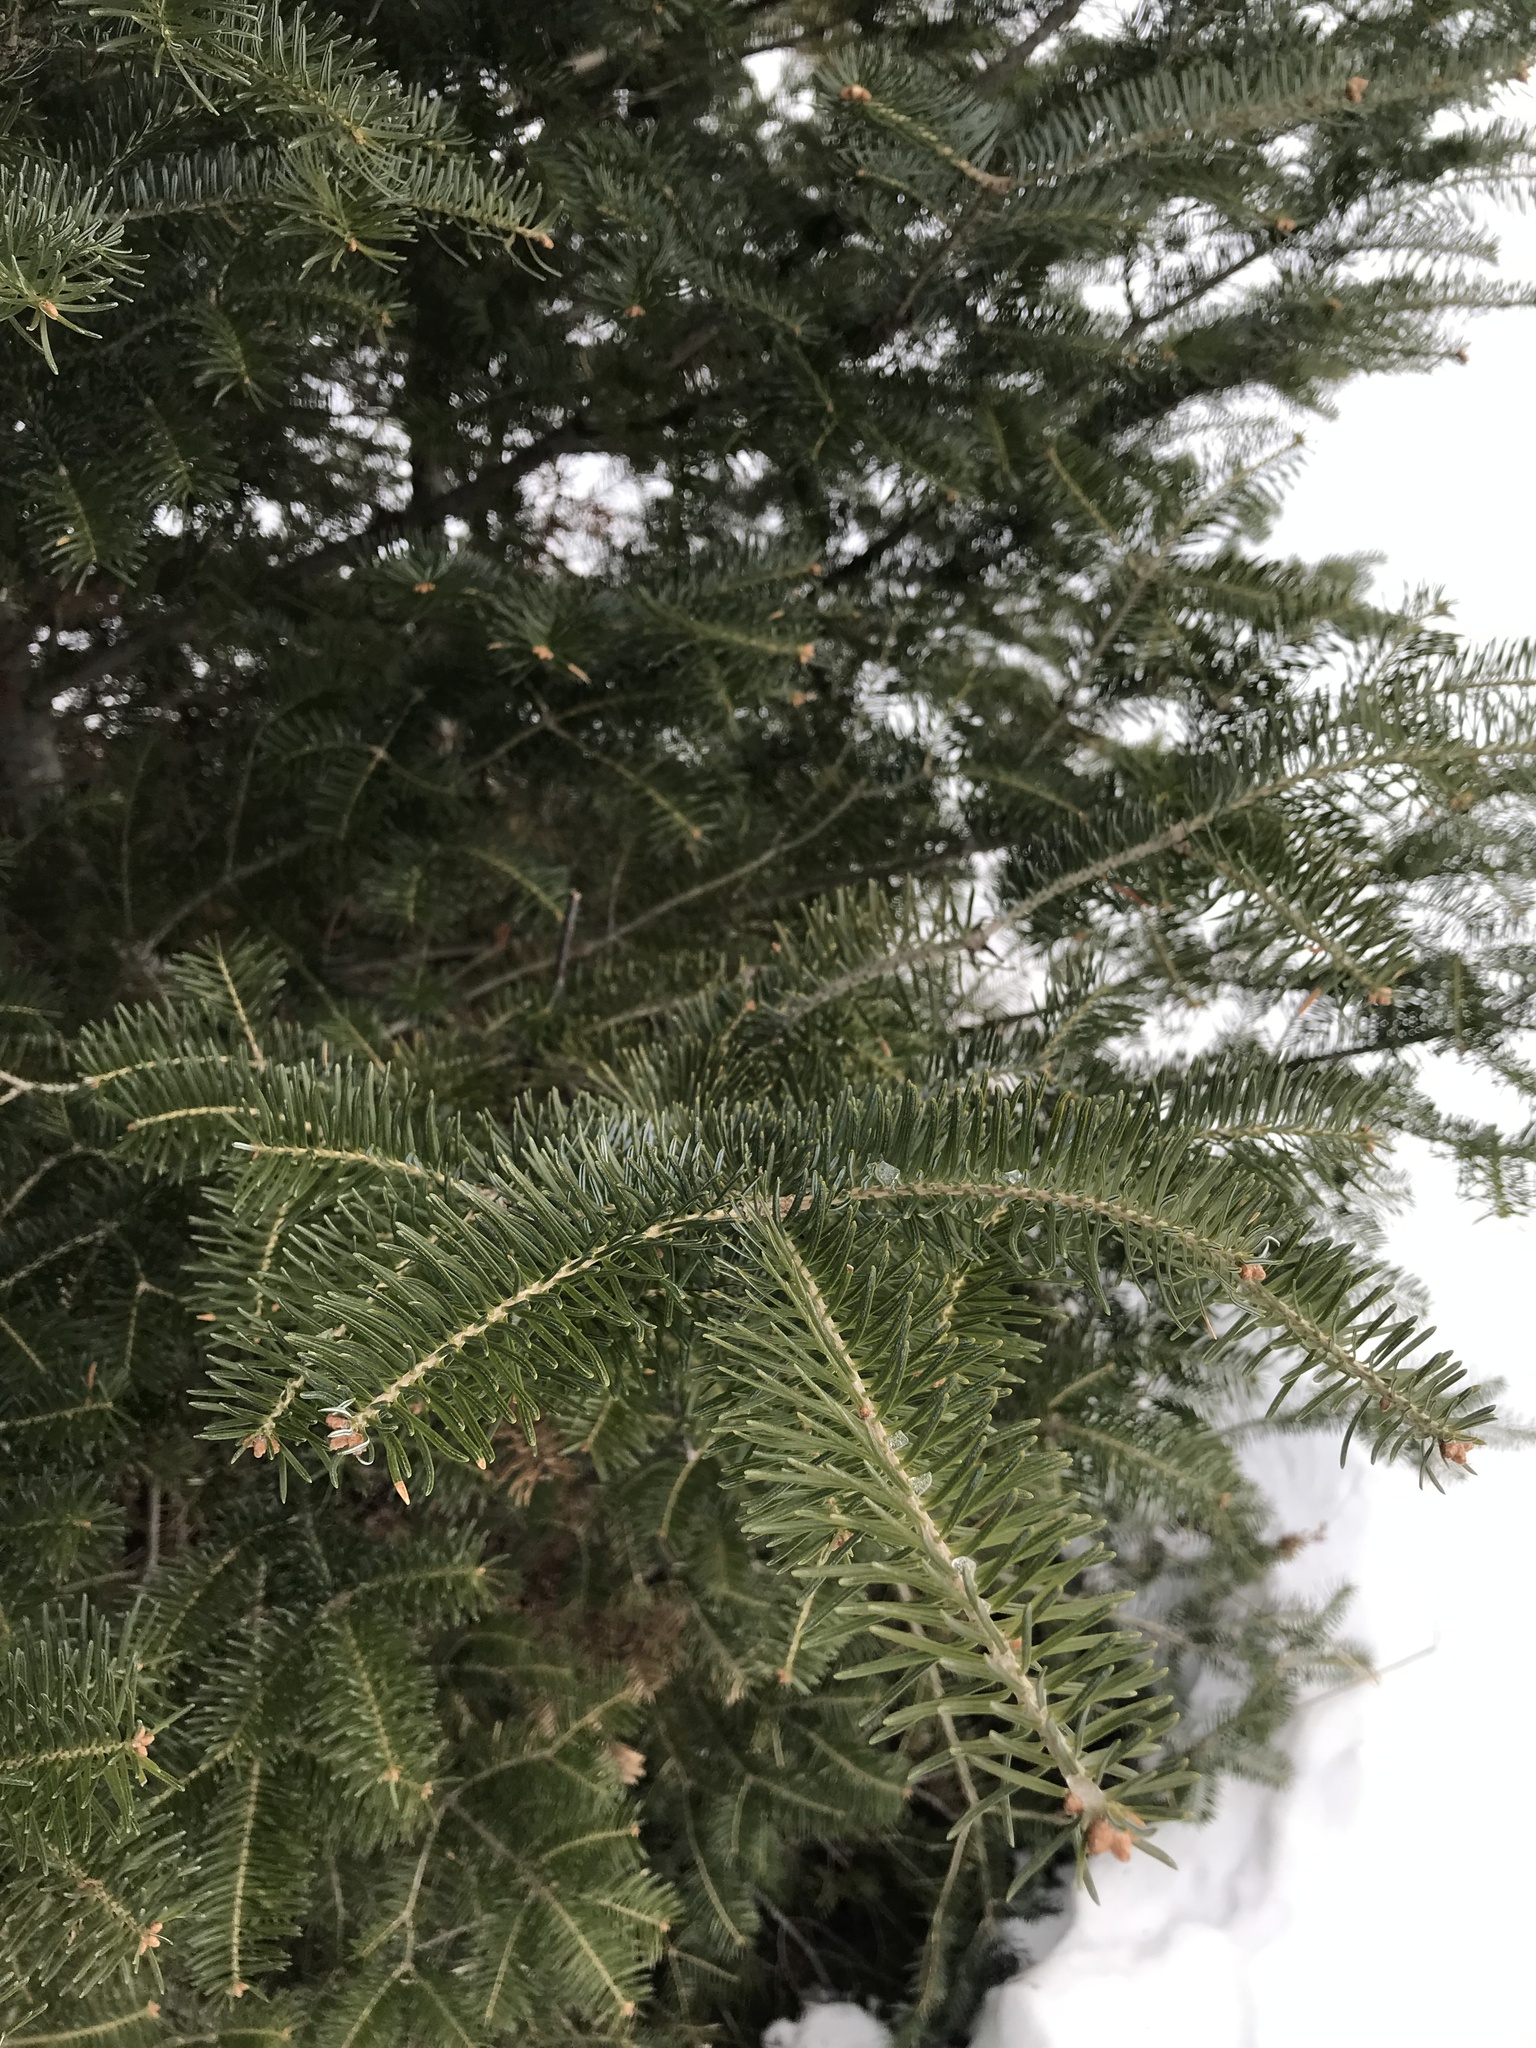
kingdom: Plantae
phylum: Tracheophyta
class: Pinopsida
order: Pinales
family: Pinaceae
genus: Abies
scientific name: Abies balsamea
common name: Balsam fir
